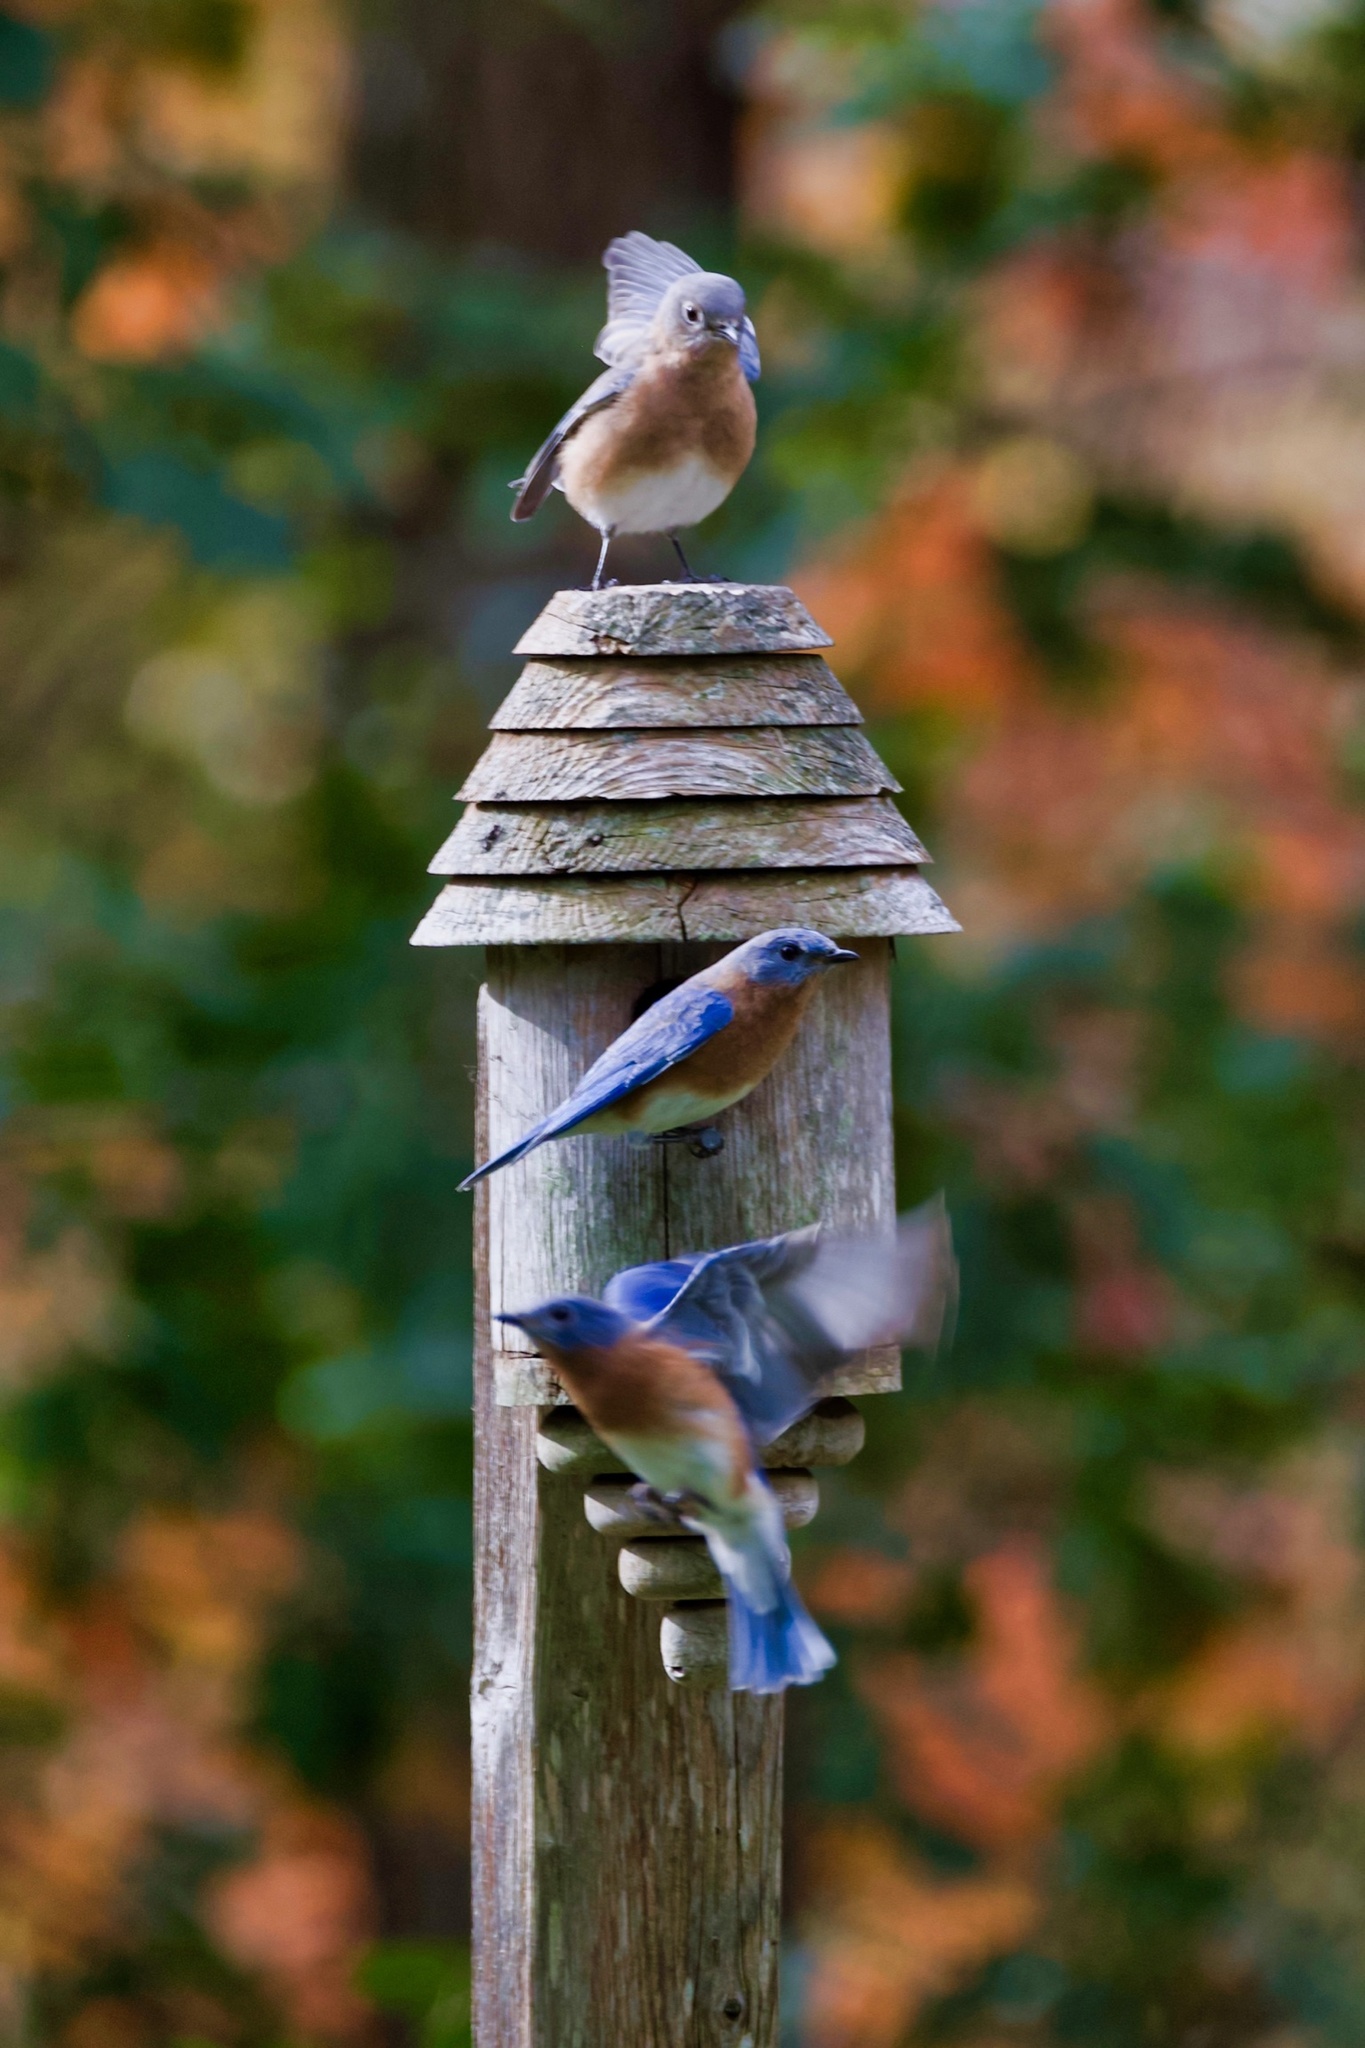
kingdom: Animalia
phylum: Chordata
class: Aves
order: Passeriformes
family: Turdidae
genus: Sialia
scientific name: Sialia sialis
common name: Eastern bluebird
